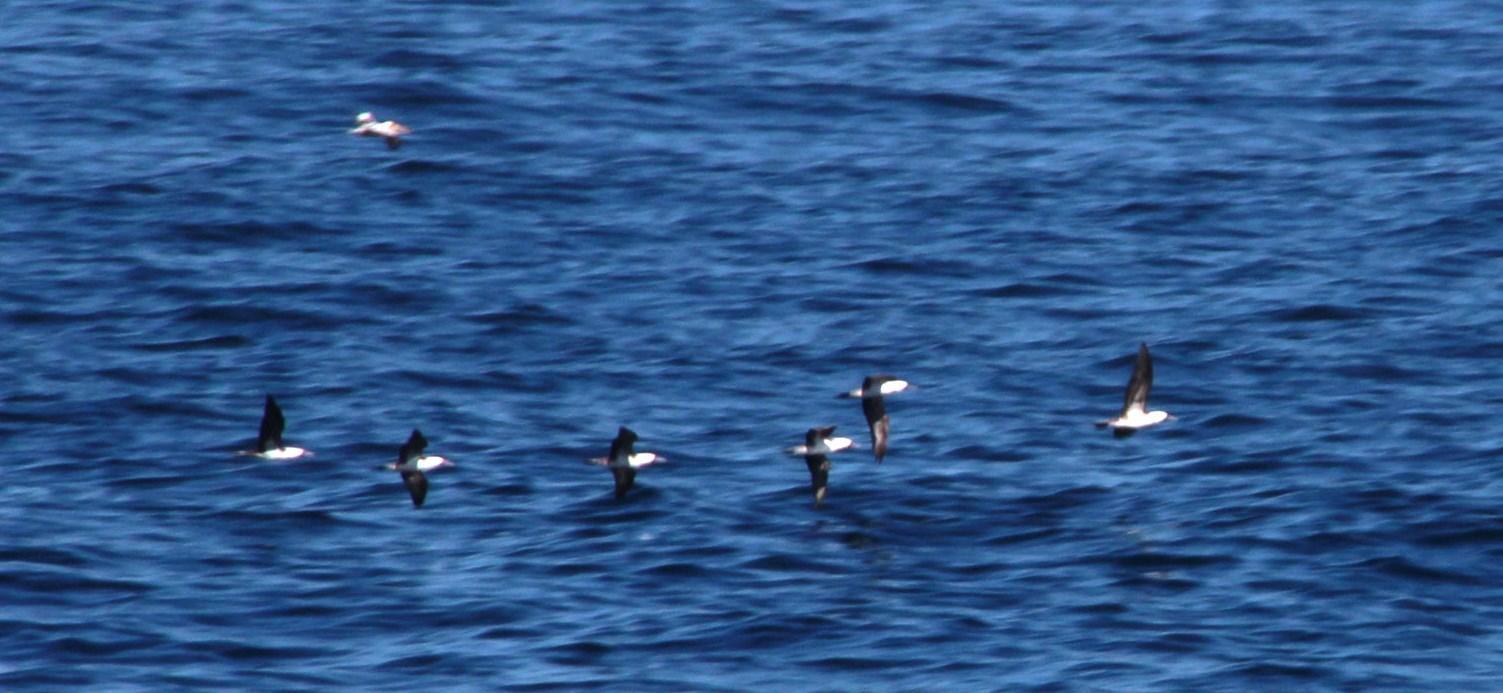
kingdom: Animalia
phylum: Chordata
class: Aves
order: Suliformes
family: Sulidae
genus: Sula
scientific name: Sula variegata
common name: Peruvian booby
